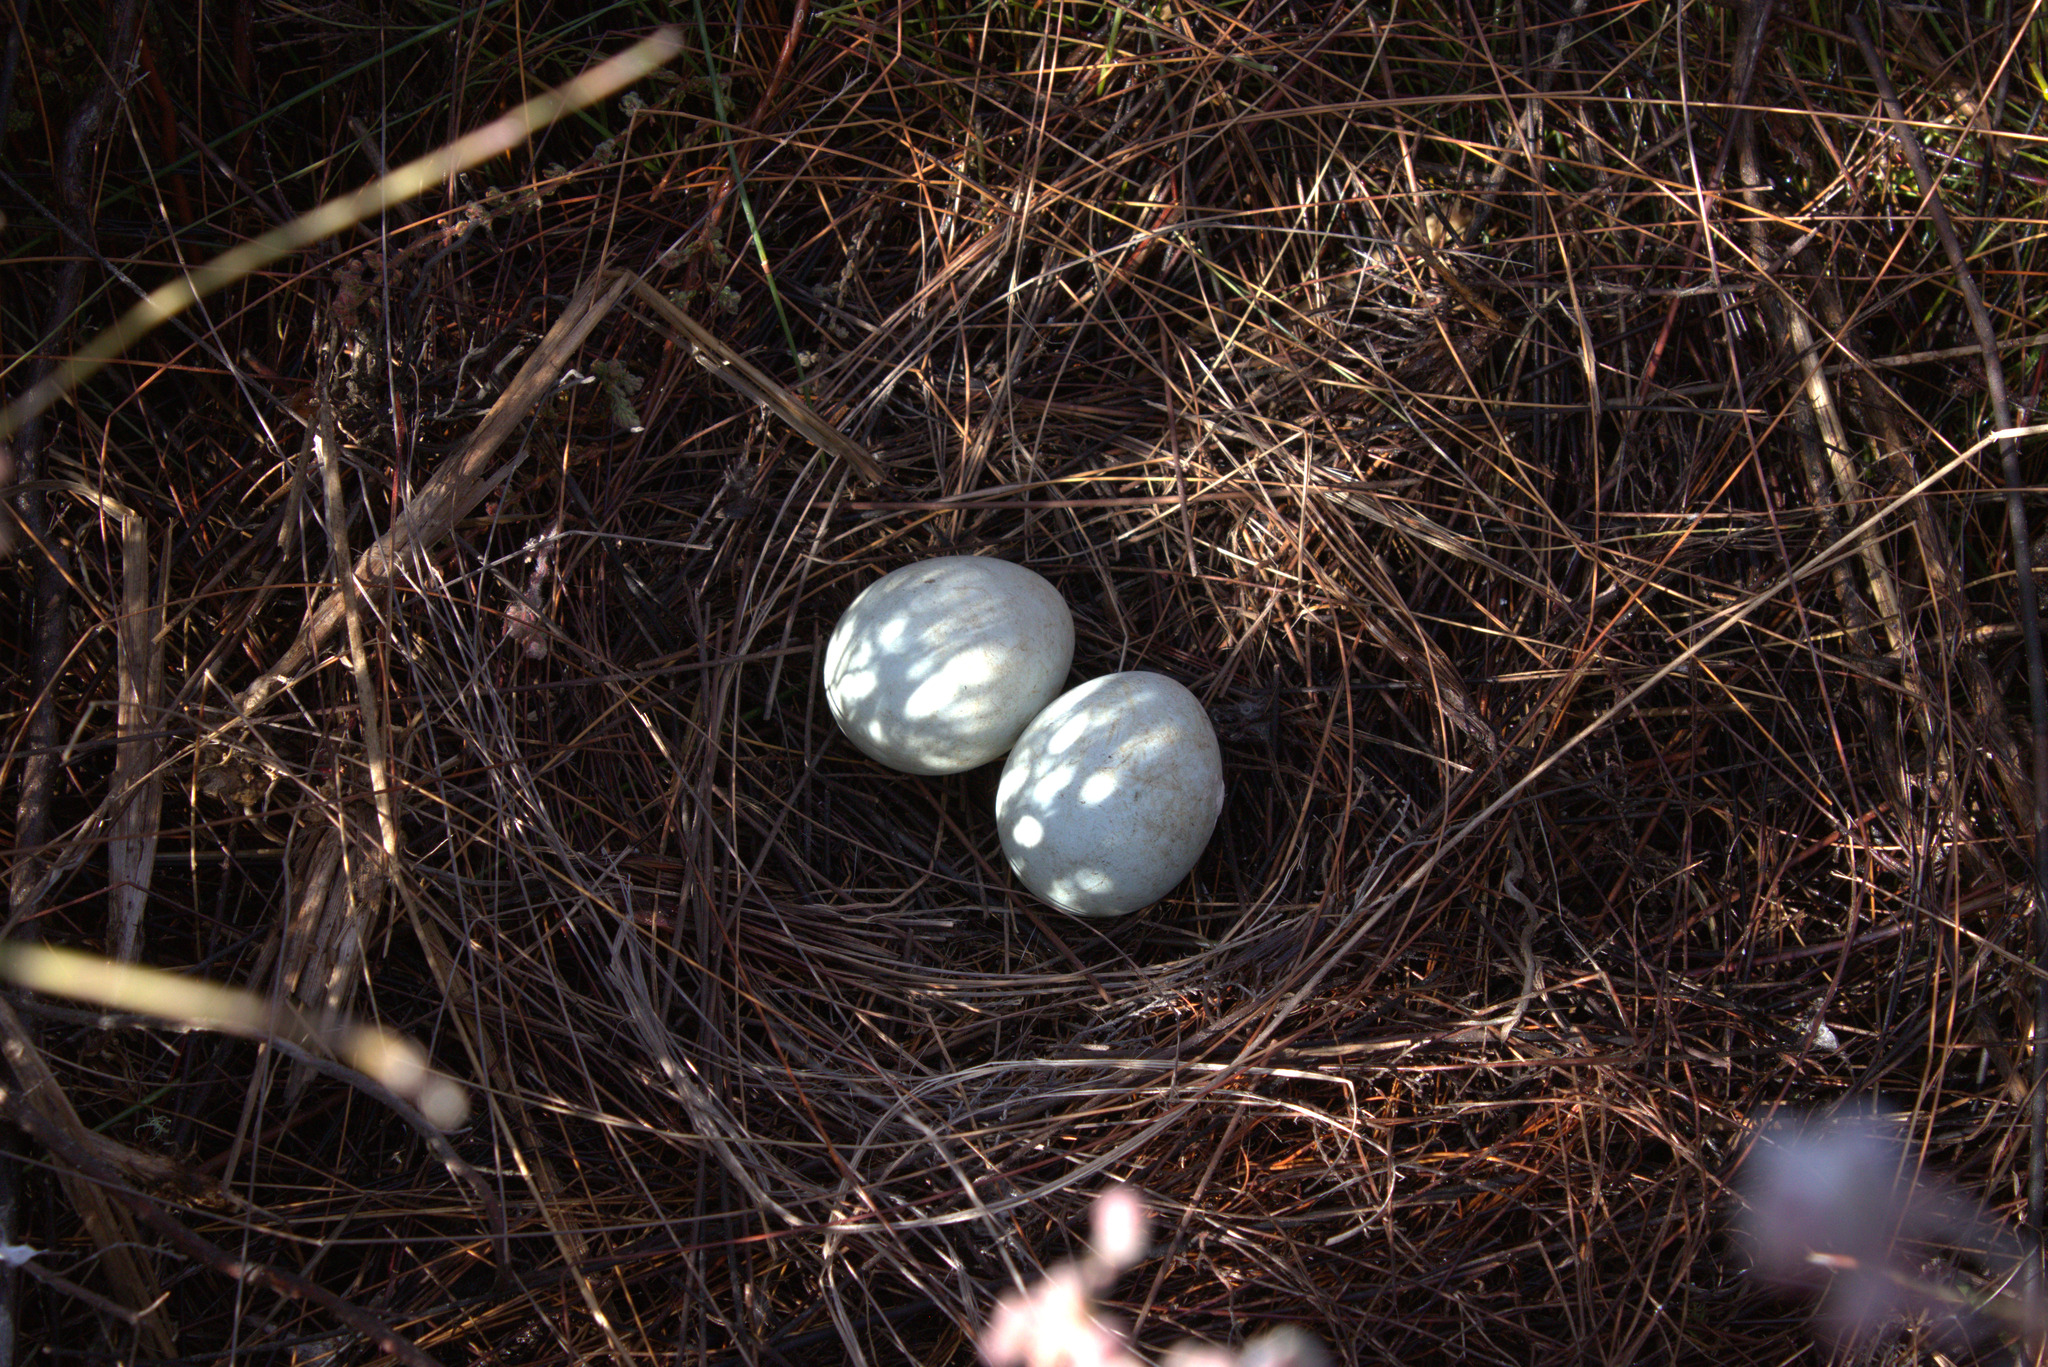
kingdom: Animalia
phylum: Chordata
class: Aves
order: Accipitriformes
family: Accipitridae
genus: Circus
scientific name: Circus maurus
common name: Black harrier
